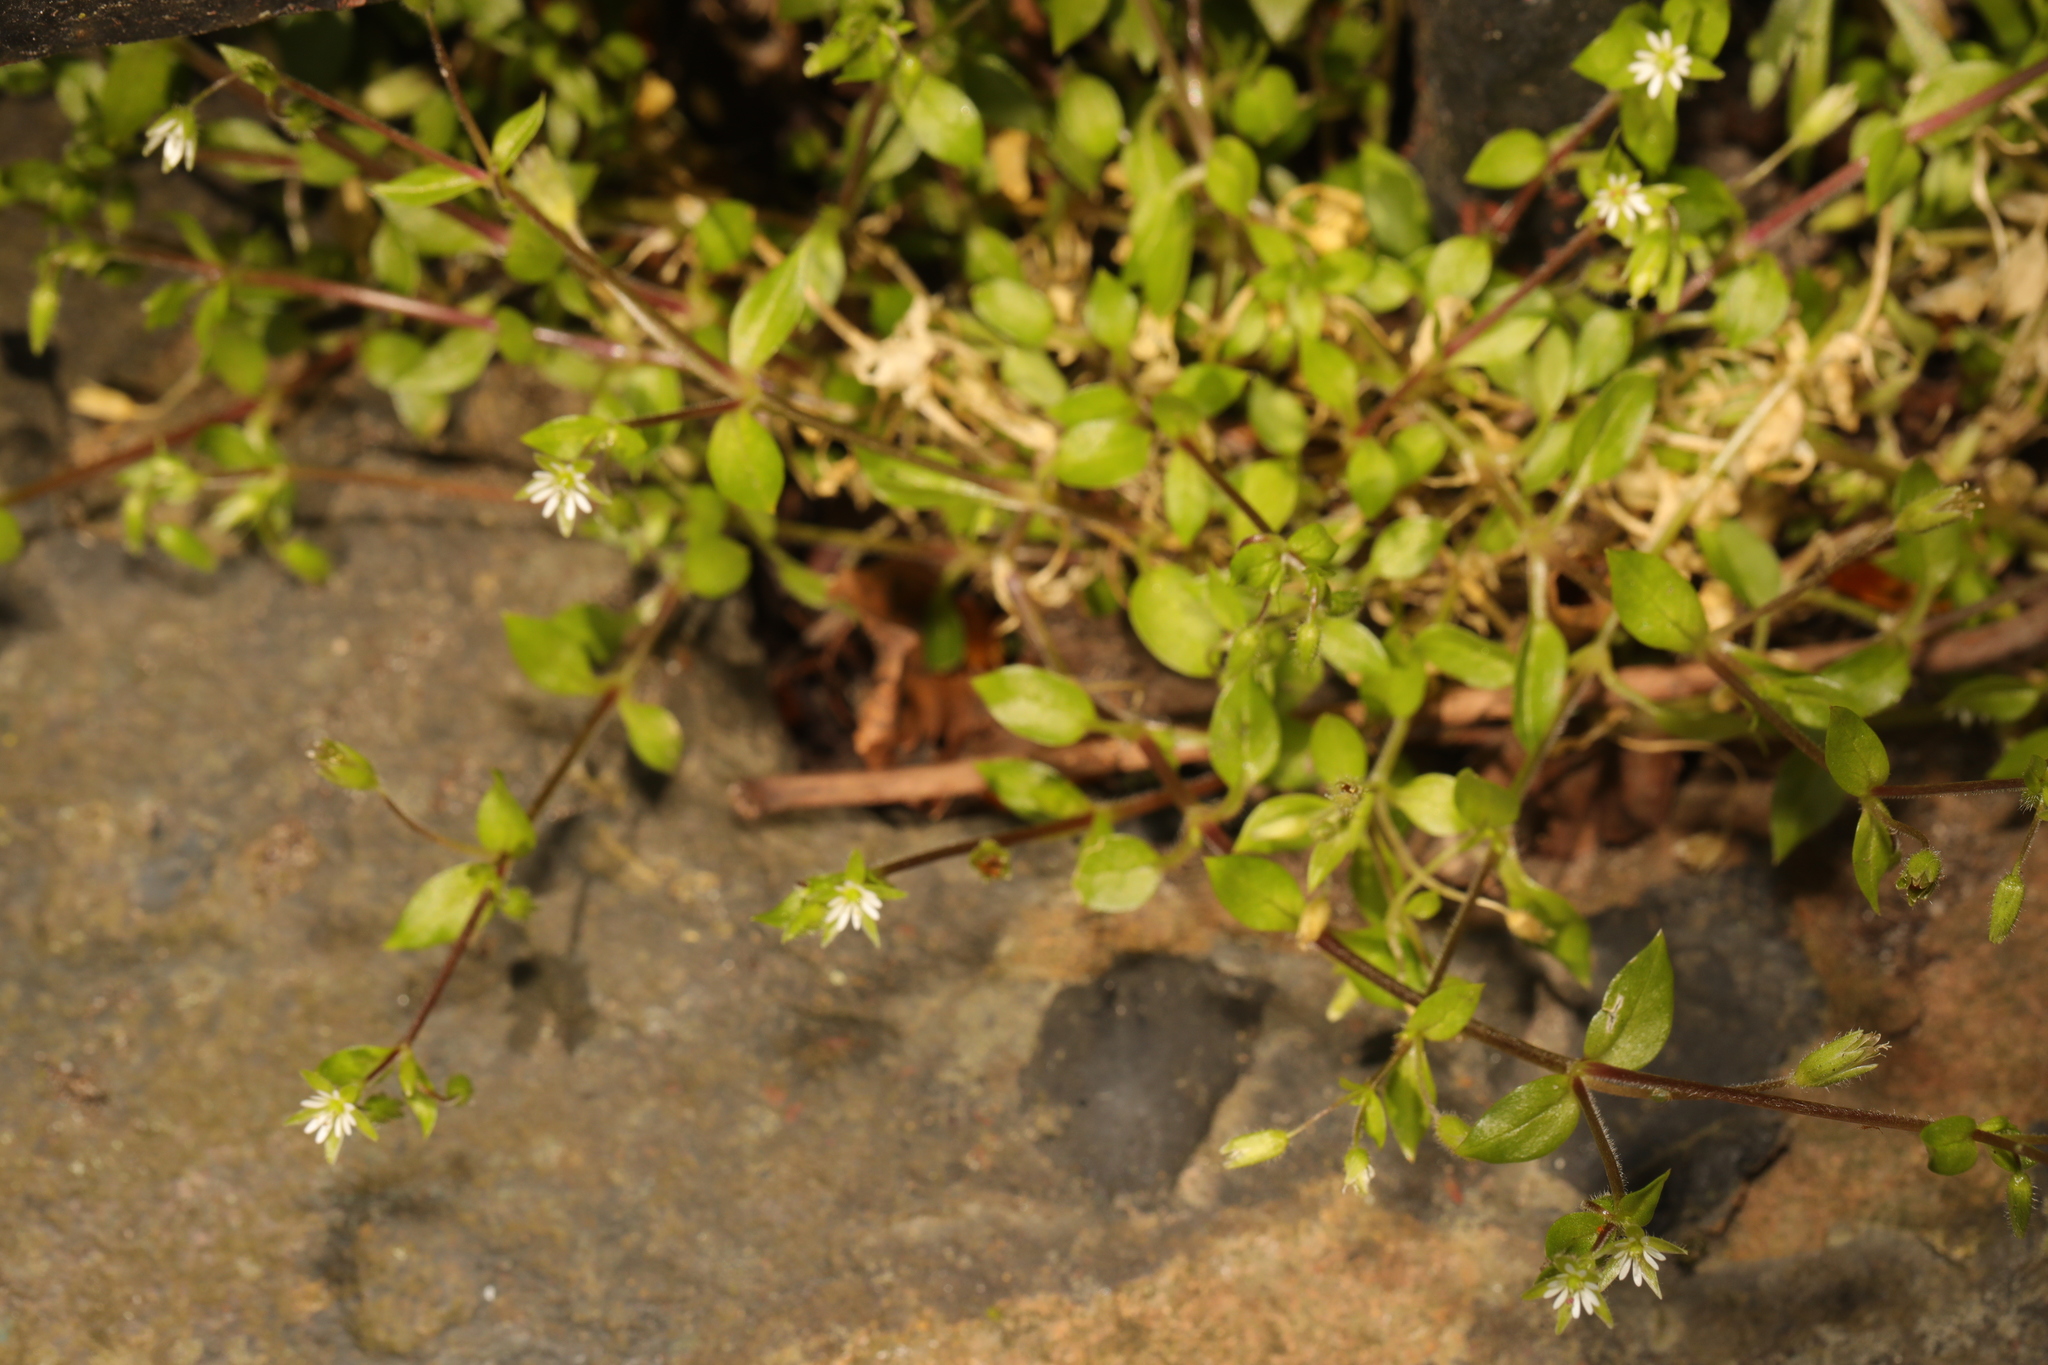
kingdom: Plantae
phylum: Tracheophyta
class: Magnoliopsida
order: Caryophyllales
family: Caryophyllaceae
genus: Stellaria
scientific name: Stellaria media
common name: Common chickweed
